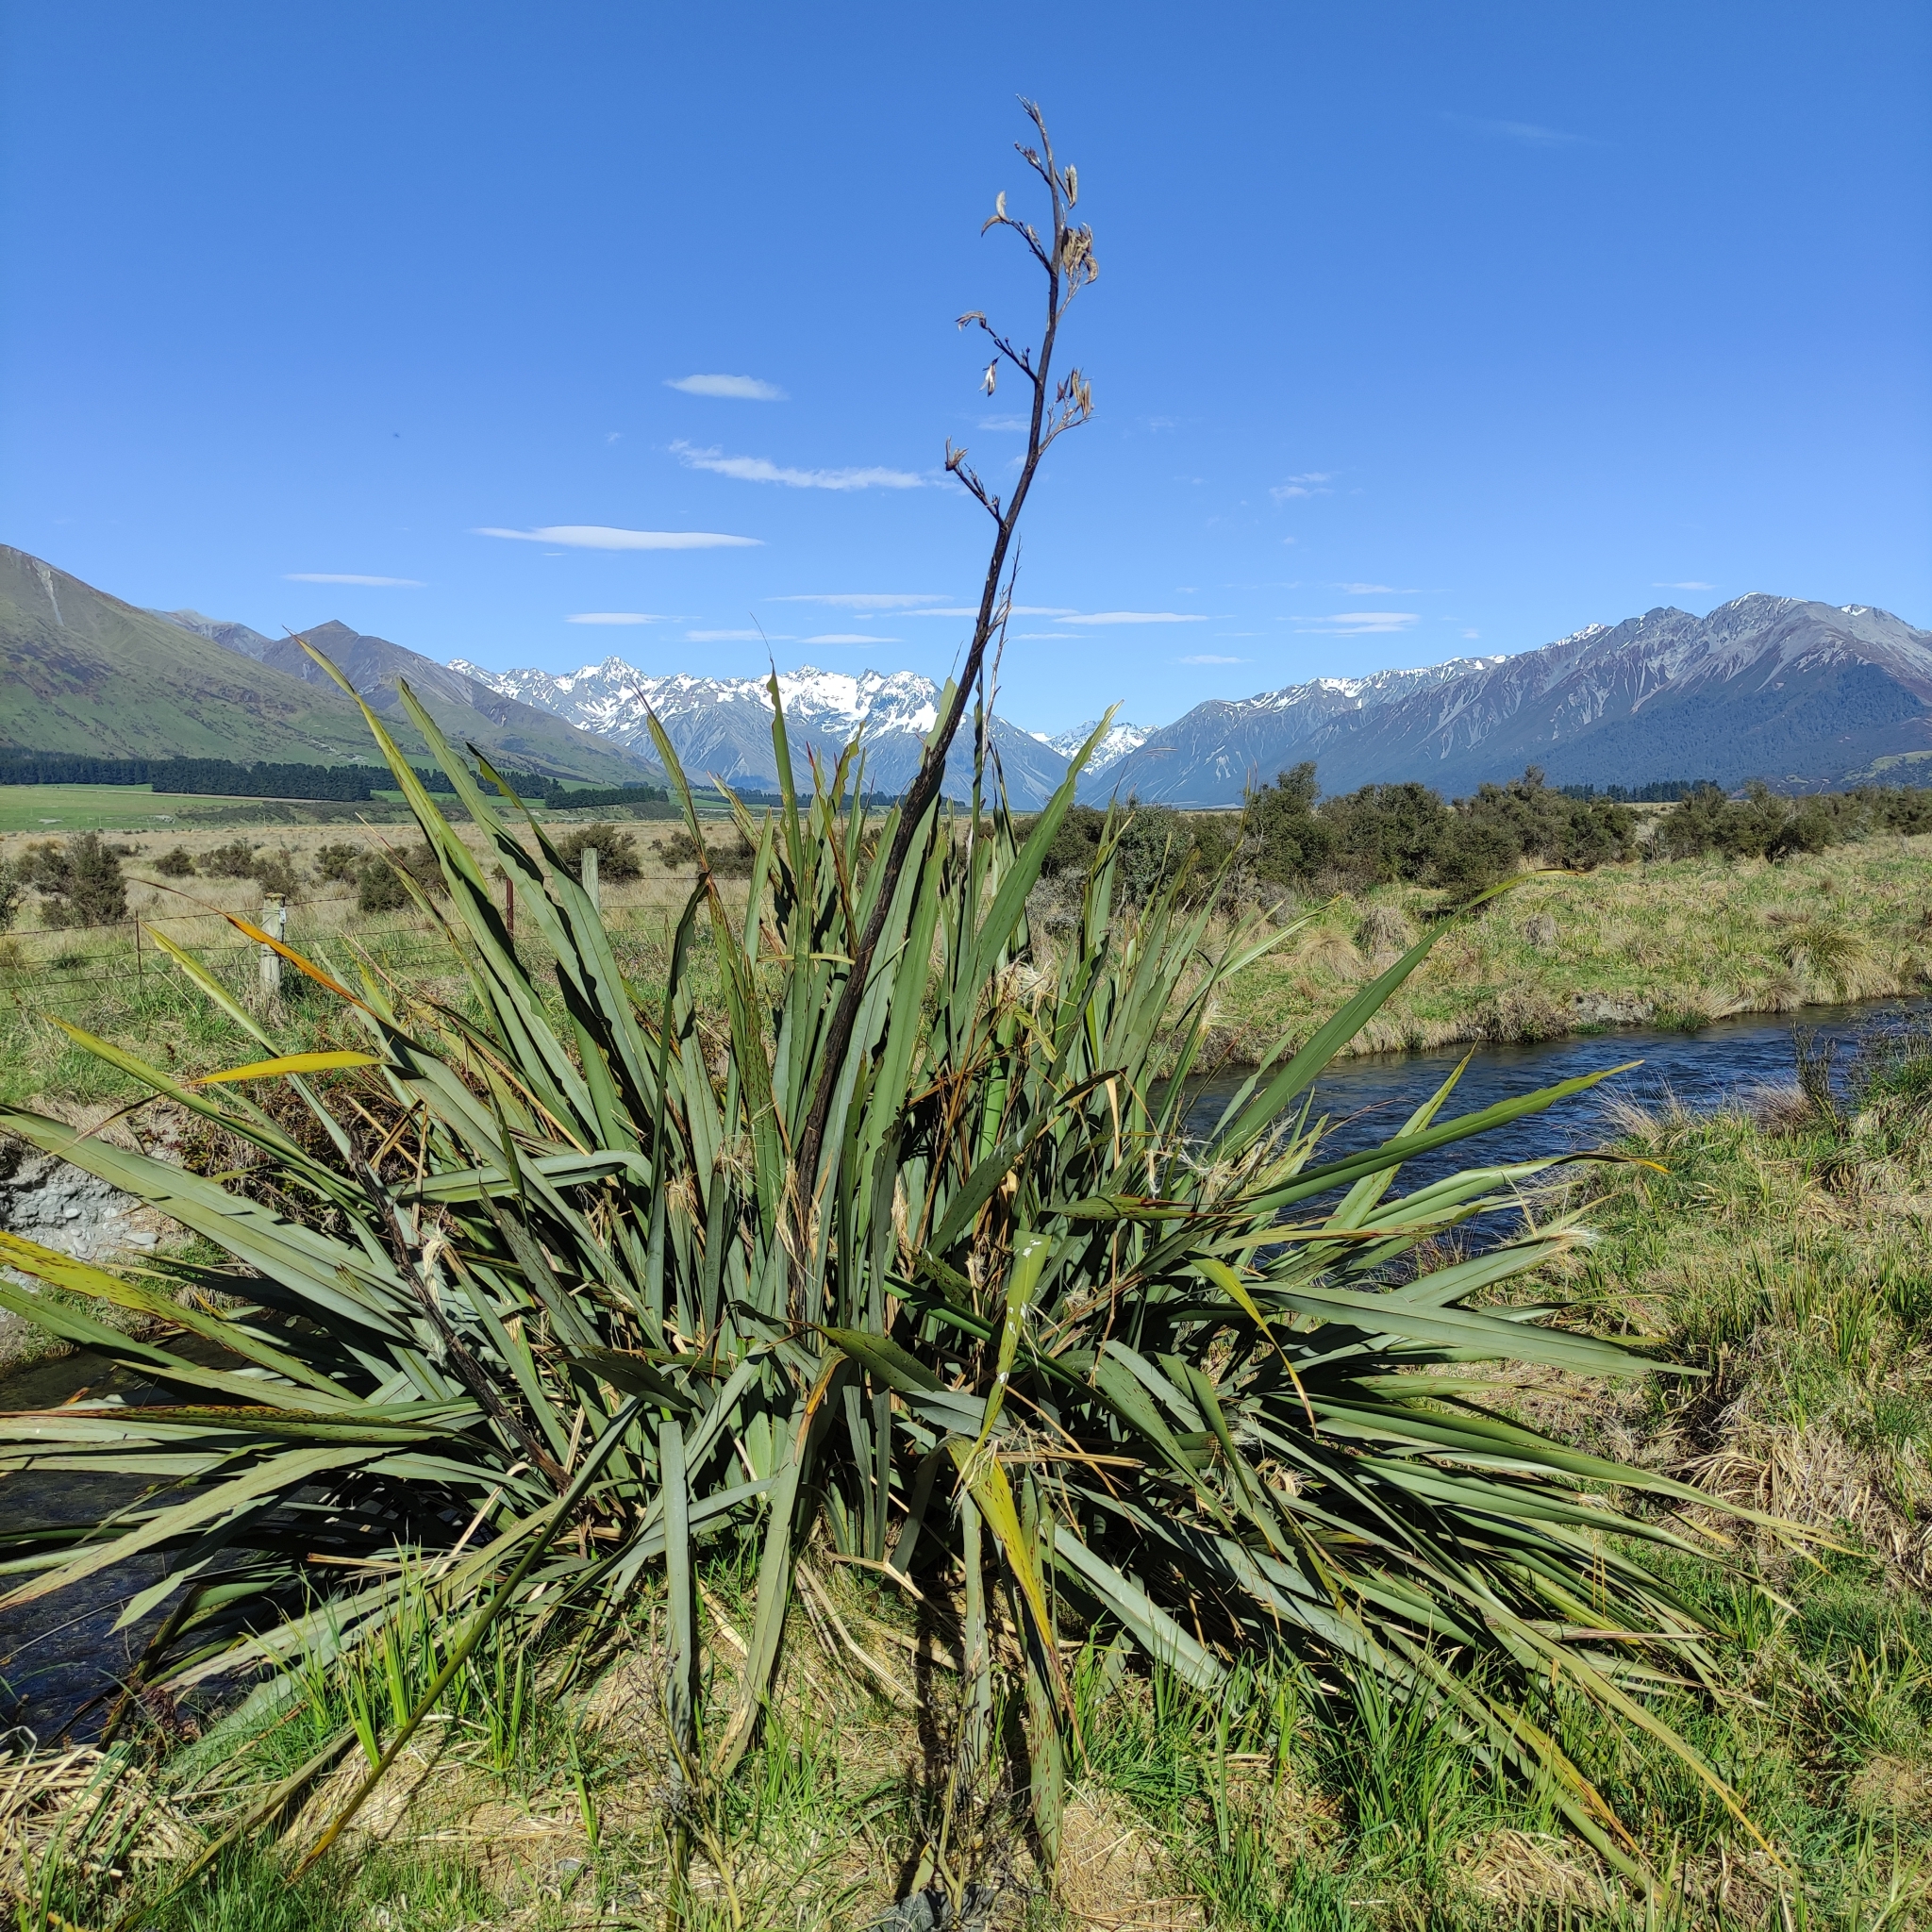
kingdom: Plantae
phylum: Tracheophyta
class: Liliopsida
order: Asparagales
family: Asphodelaceae
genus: Phormium
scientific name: Phormium tenax
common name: New zealand flax
